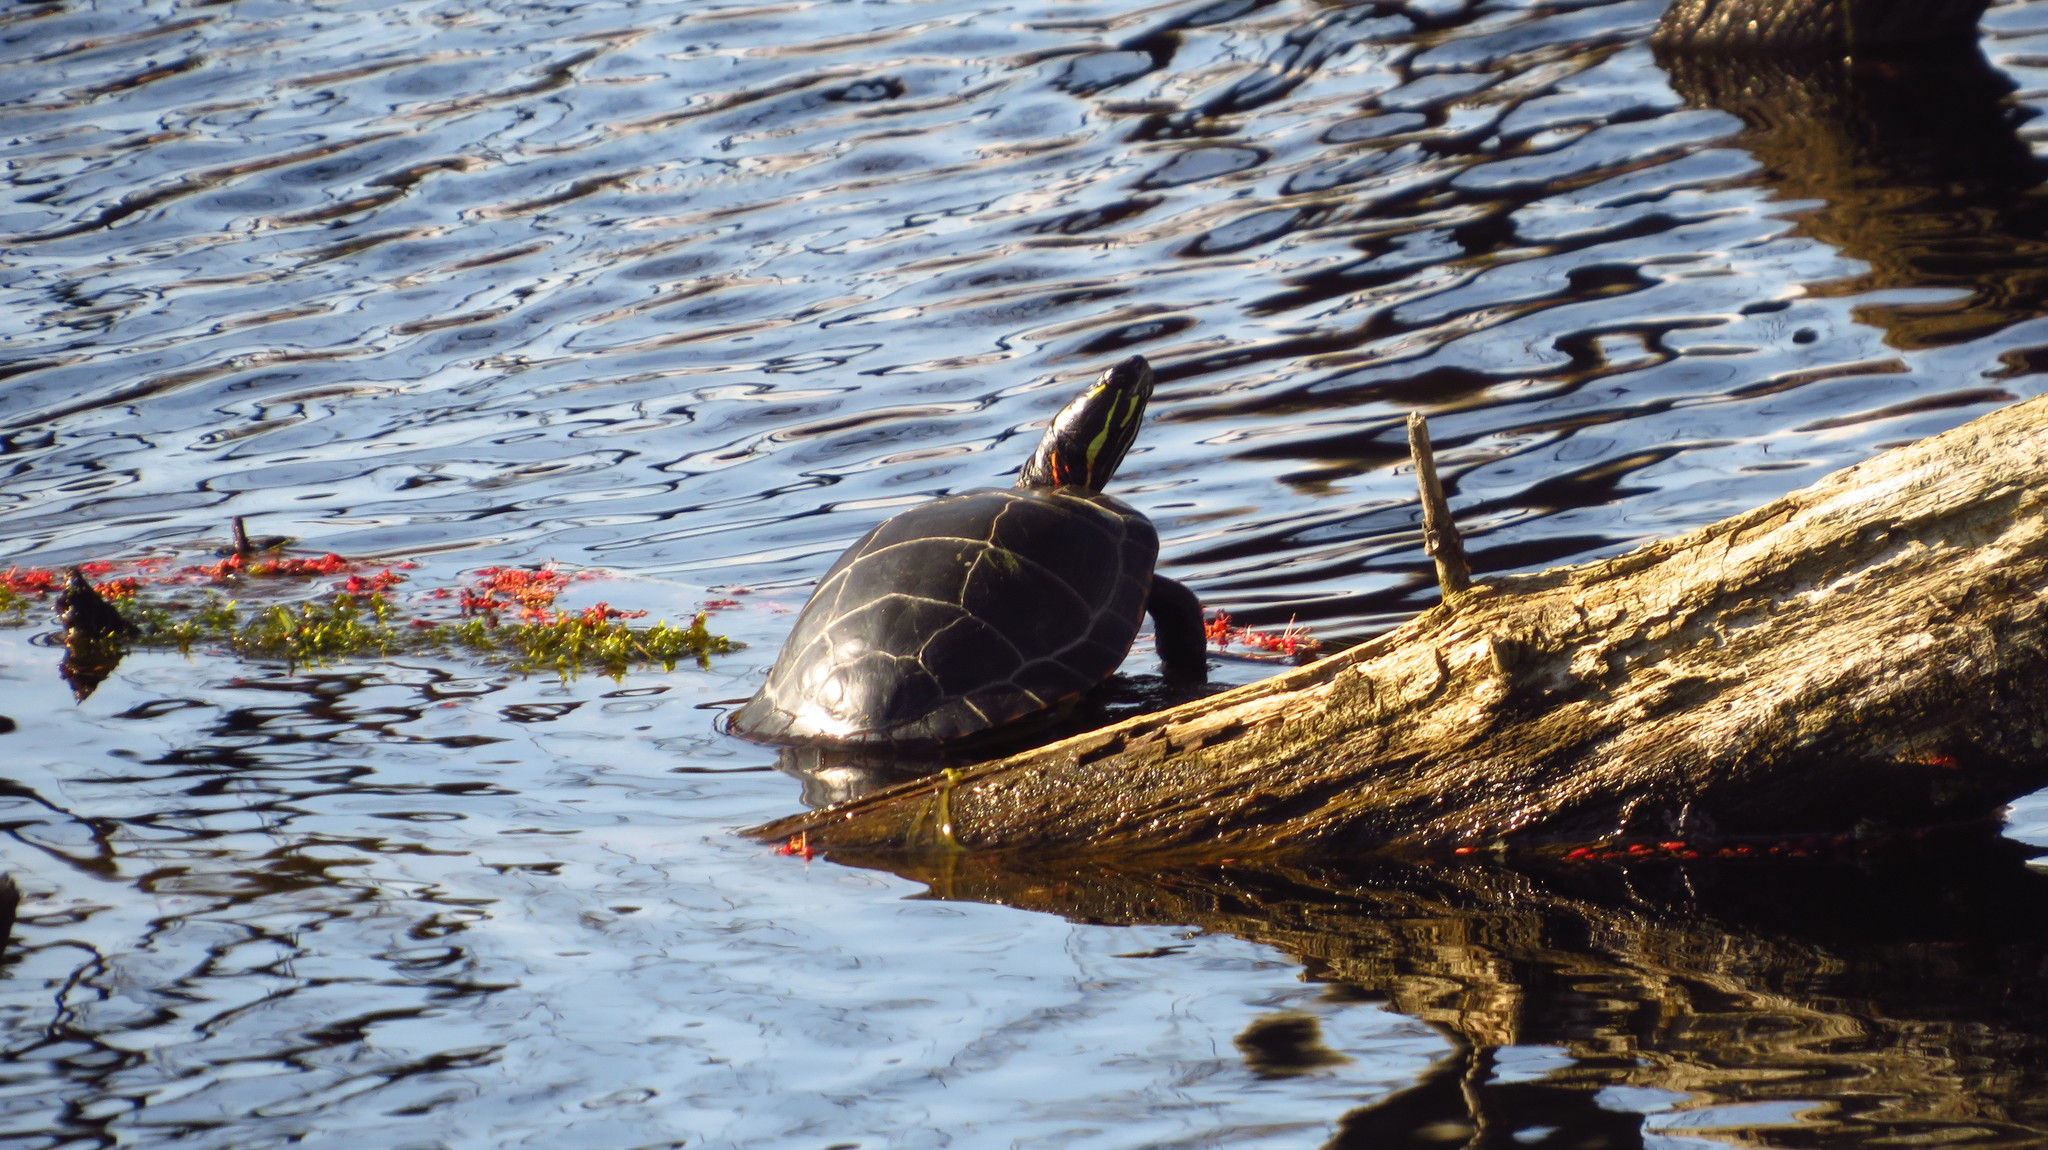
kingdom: Animalia
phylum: Chordata
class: Testudines
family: Emydidae
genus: Chrysemys
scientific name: Chrysemys picta
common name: Painted turtle
